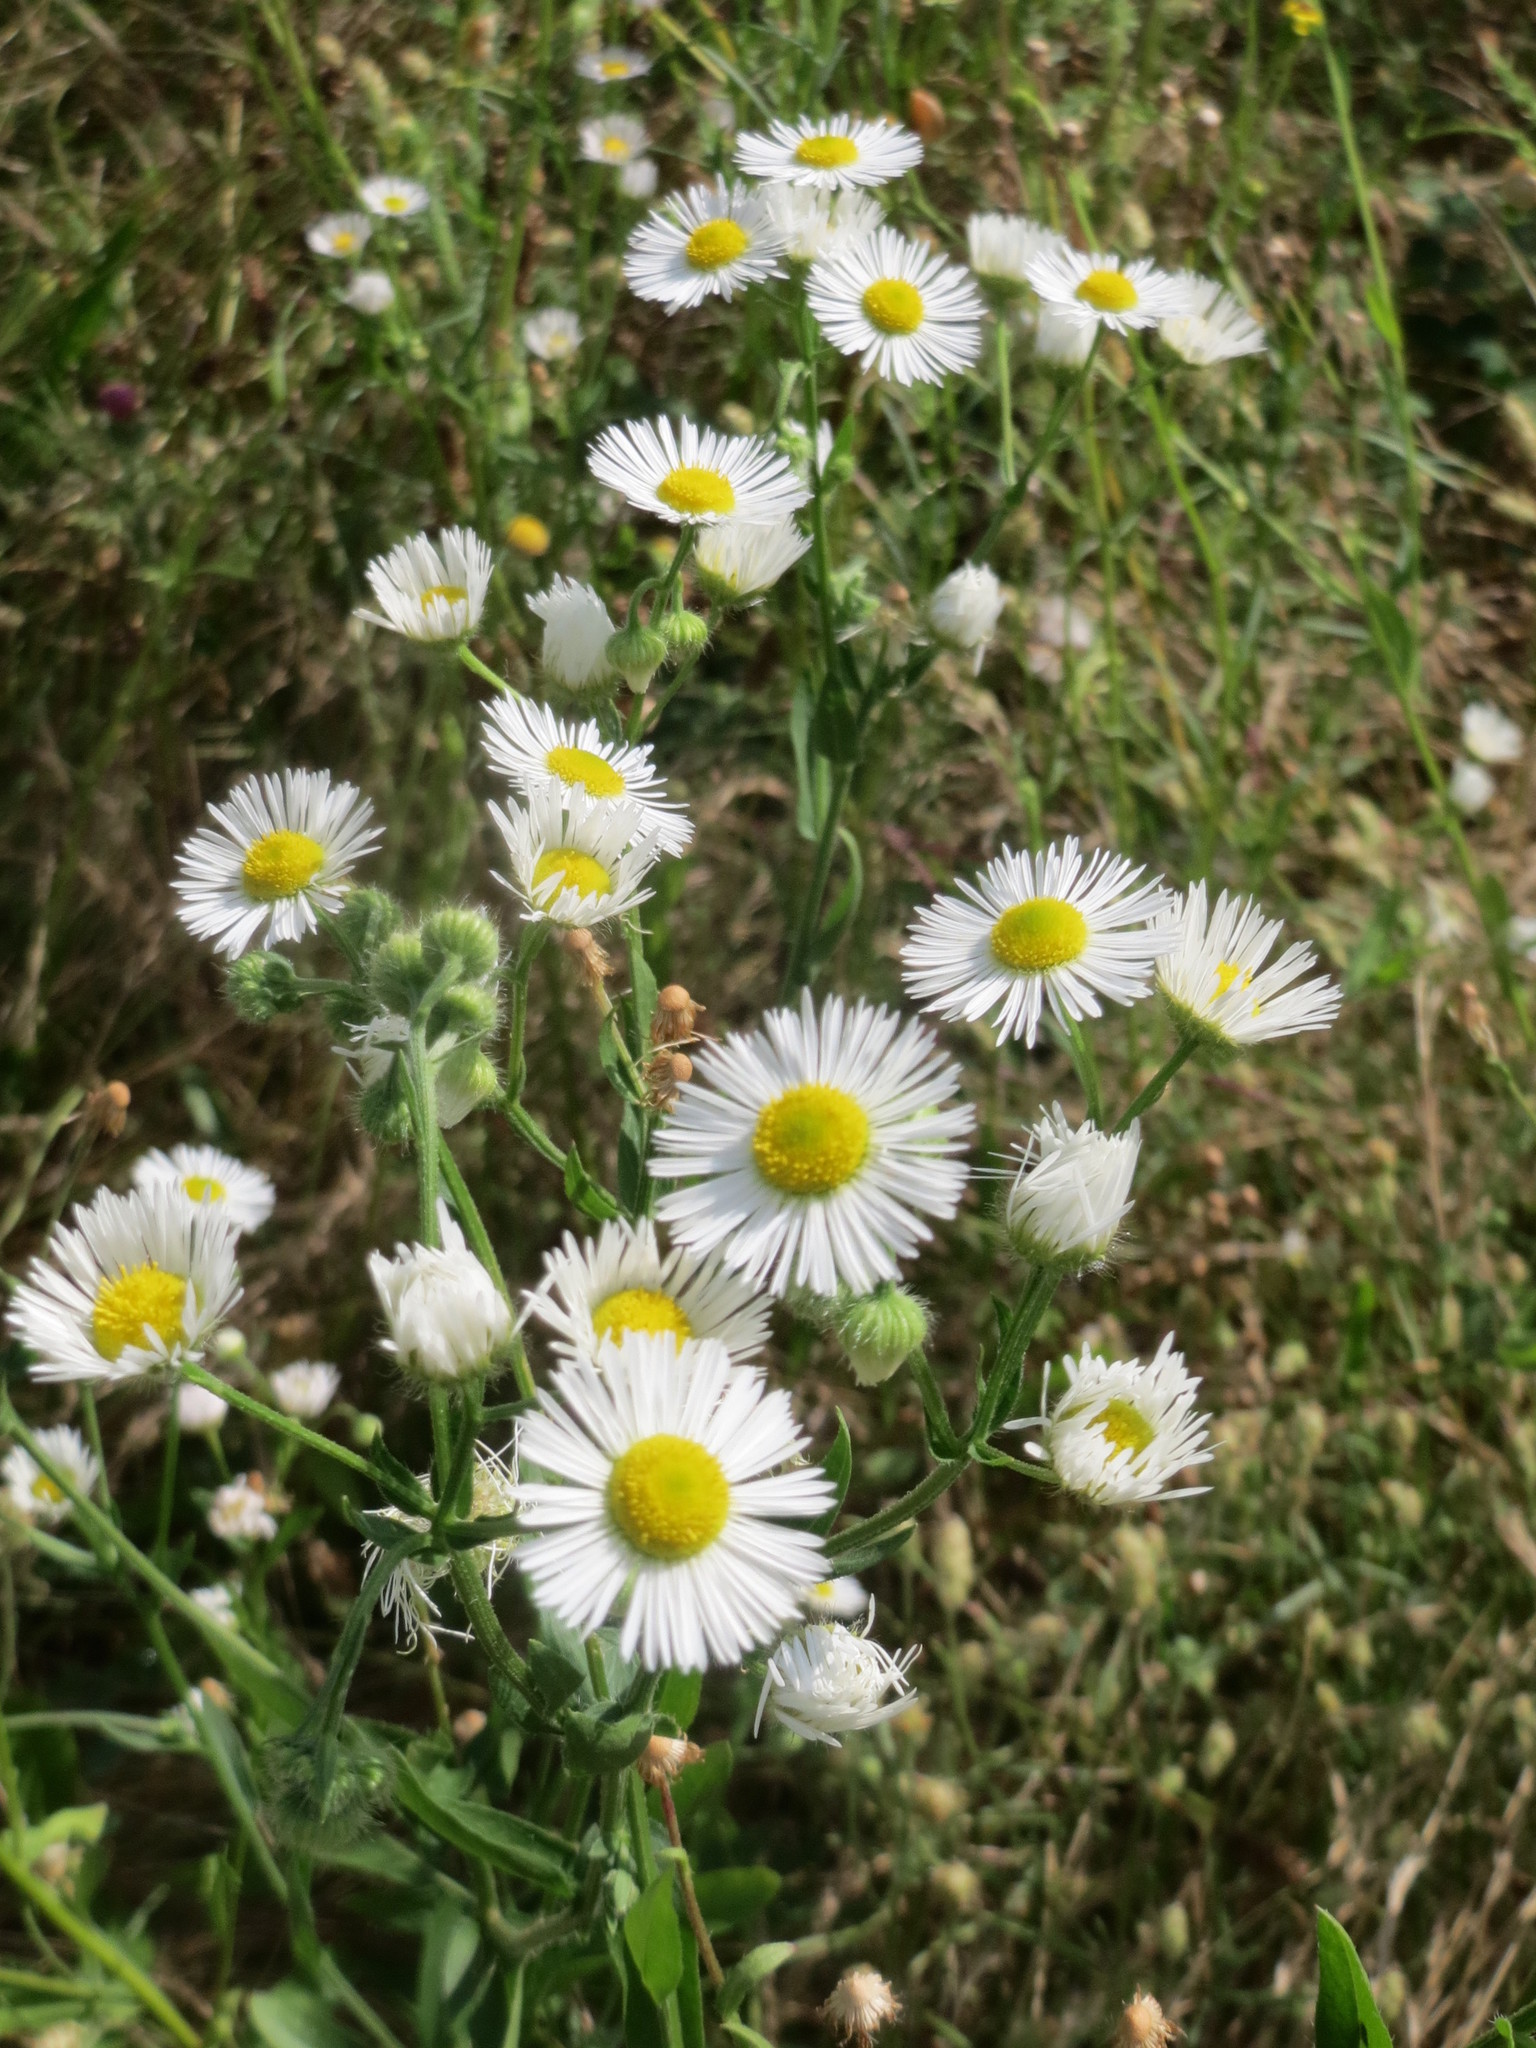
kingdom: Plantae
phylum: Tracheophyta
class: Magnoliopsida
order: Asterales
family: Asteraceae
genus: Erigeron
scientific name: Erigeron annuus
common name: Tall fleabane
